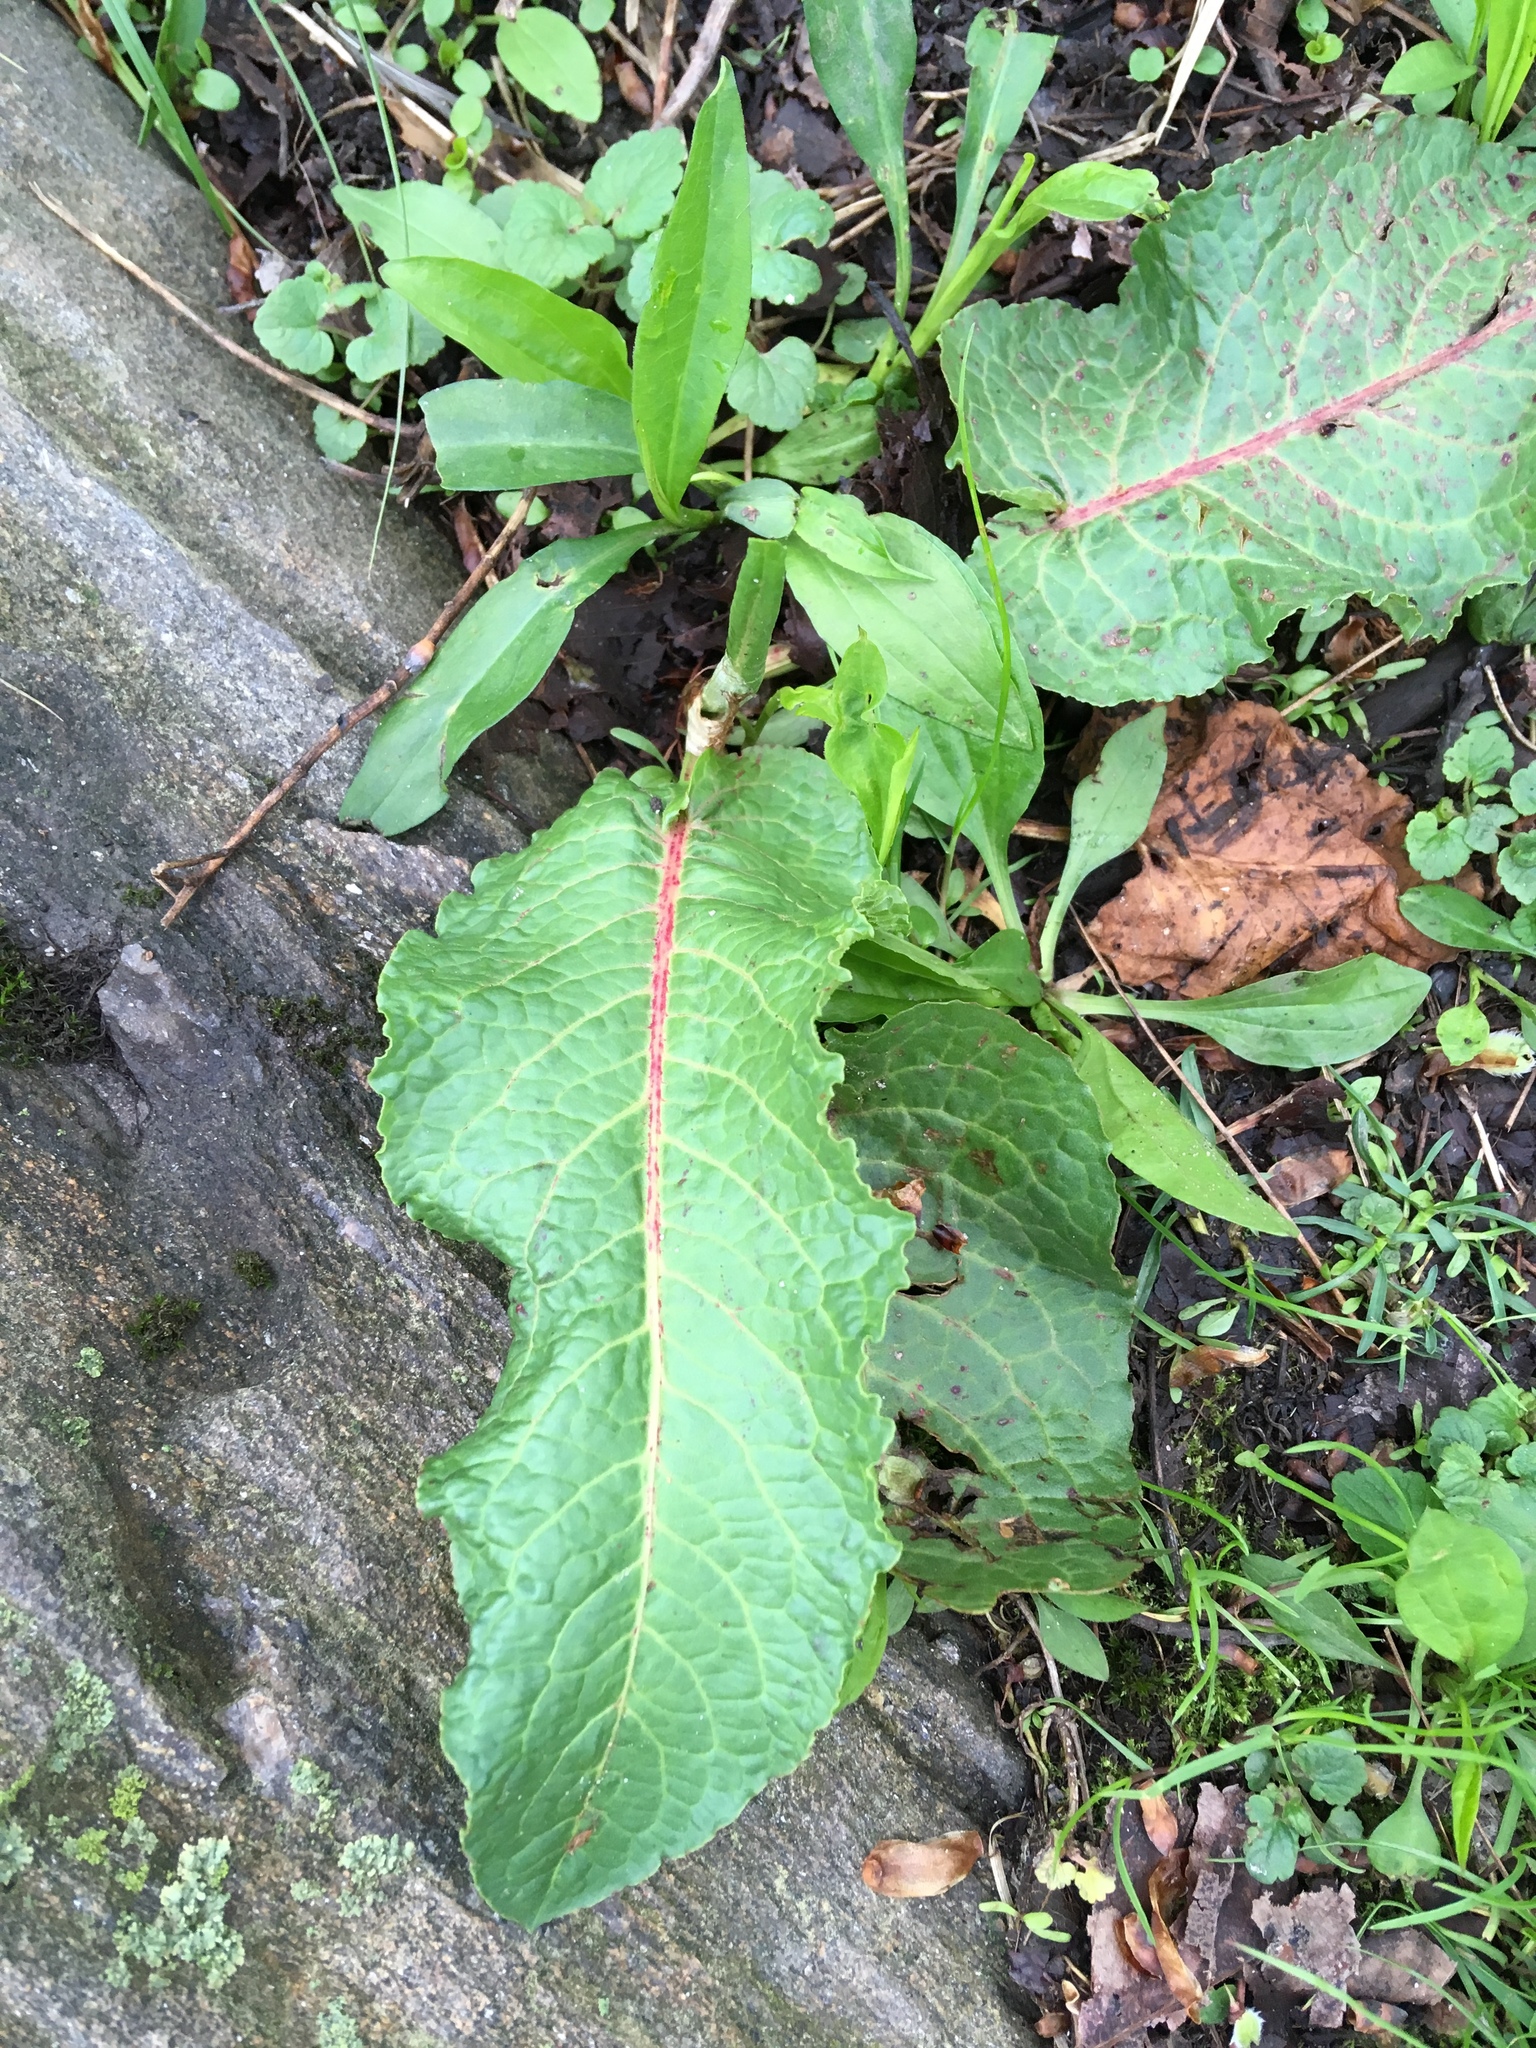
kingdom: Plantae
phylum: Tracheophyta
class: Magnoliopsida
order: Caryophyllales
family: Polygonaceae
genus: Rumex
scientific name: Rumex obtusifolius
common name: Bitter dock
